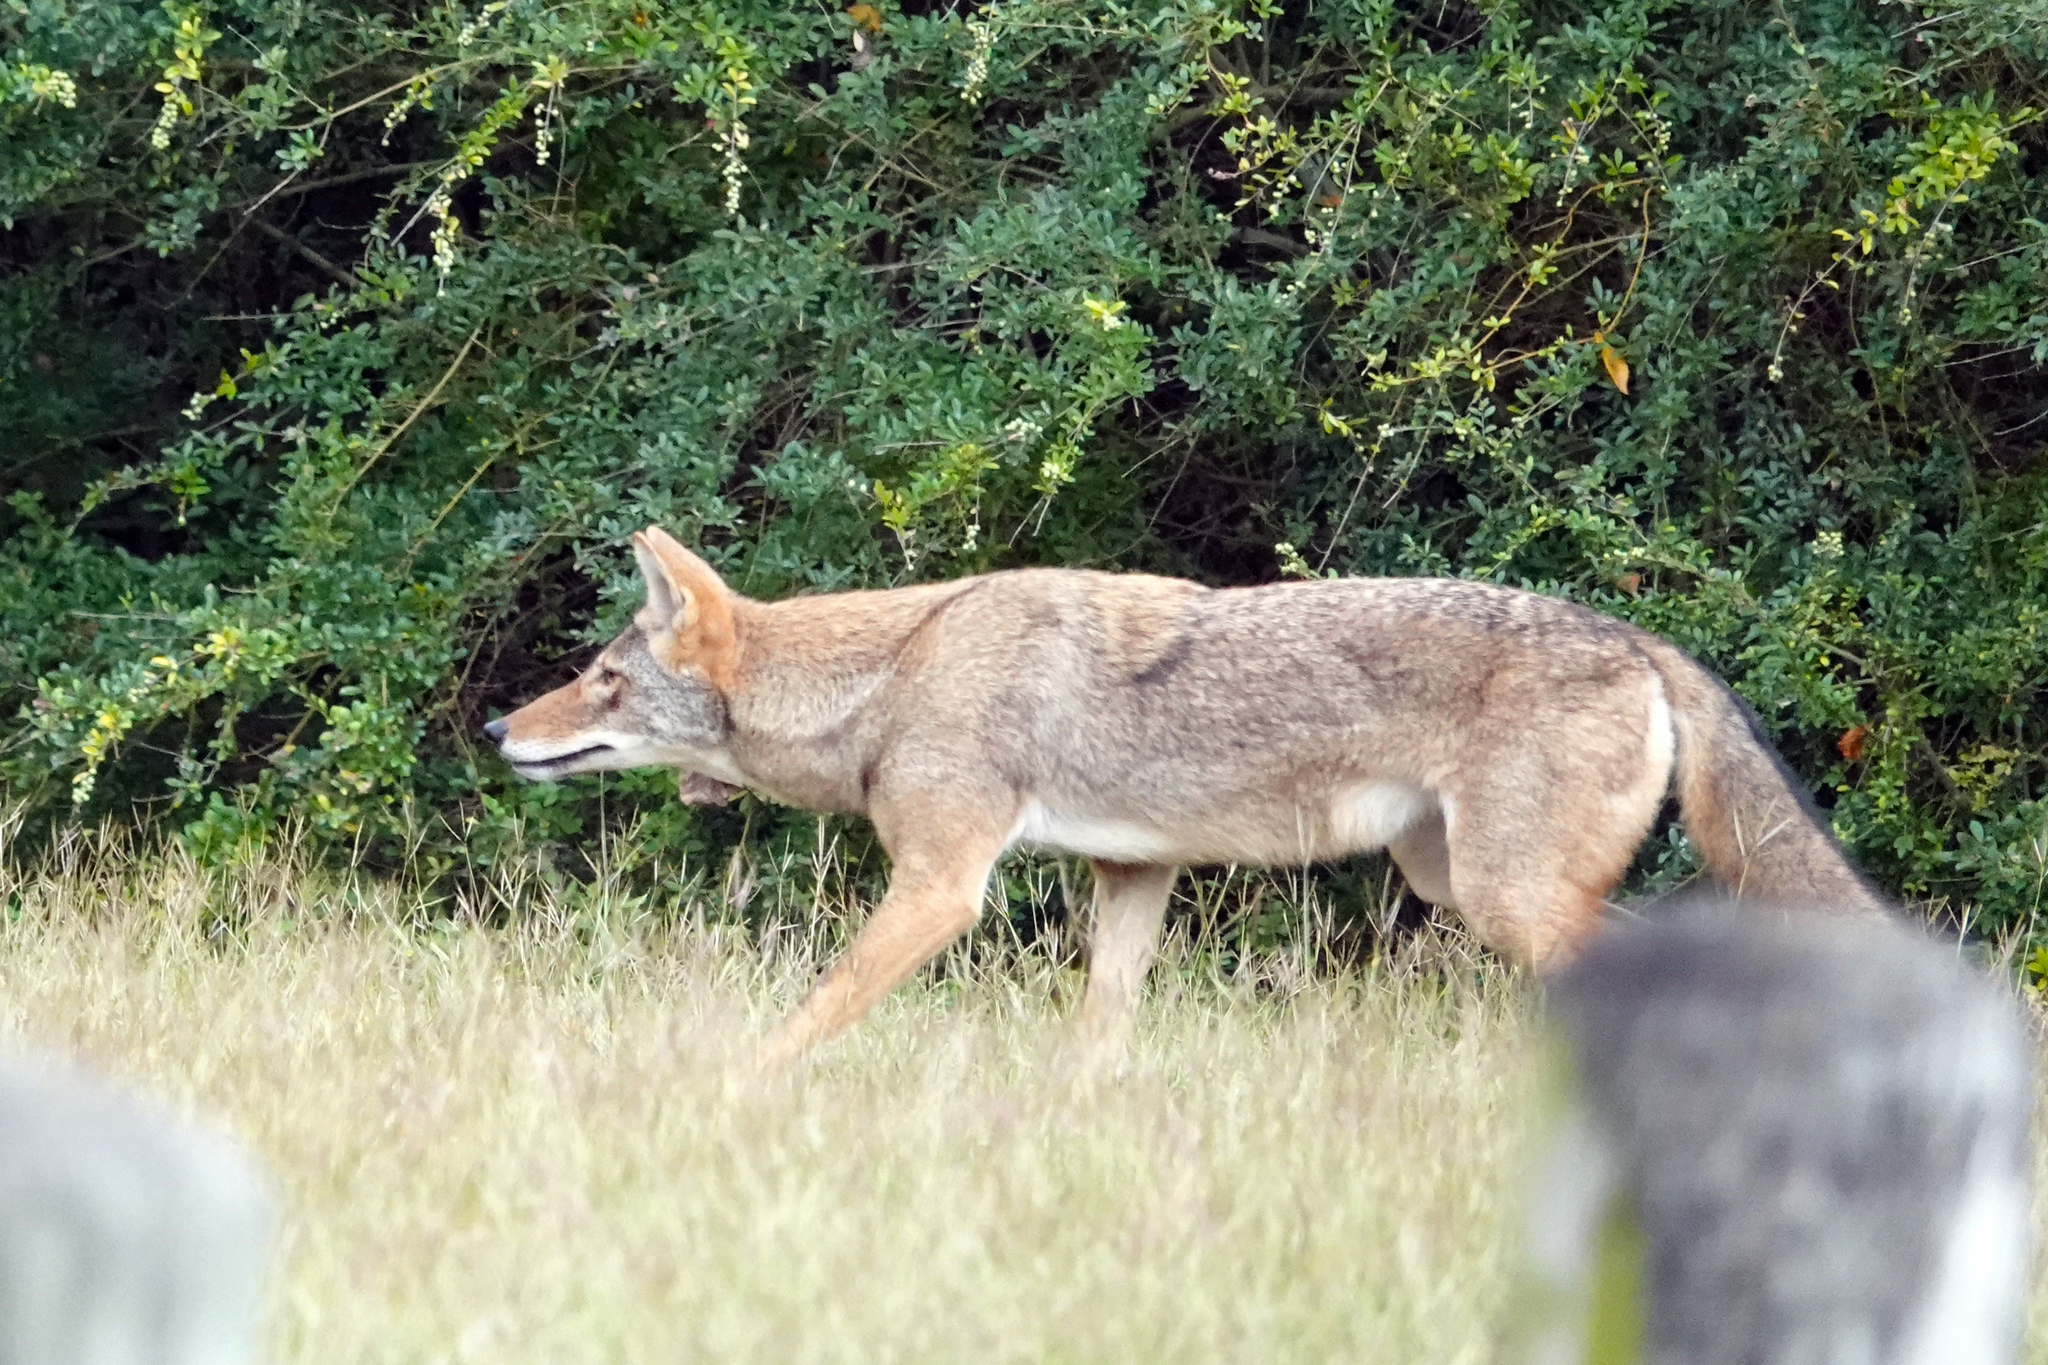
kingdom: Animalia
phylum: Chordata
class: Mammalia
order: Carnivora
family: Canidae
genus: Canis
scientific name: Canis latrans
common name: Coyote
